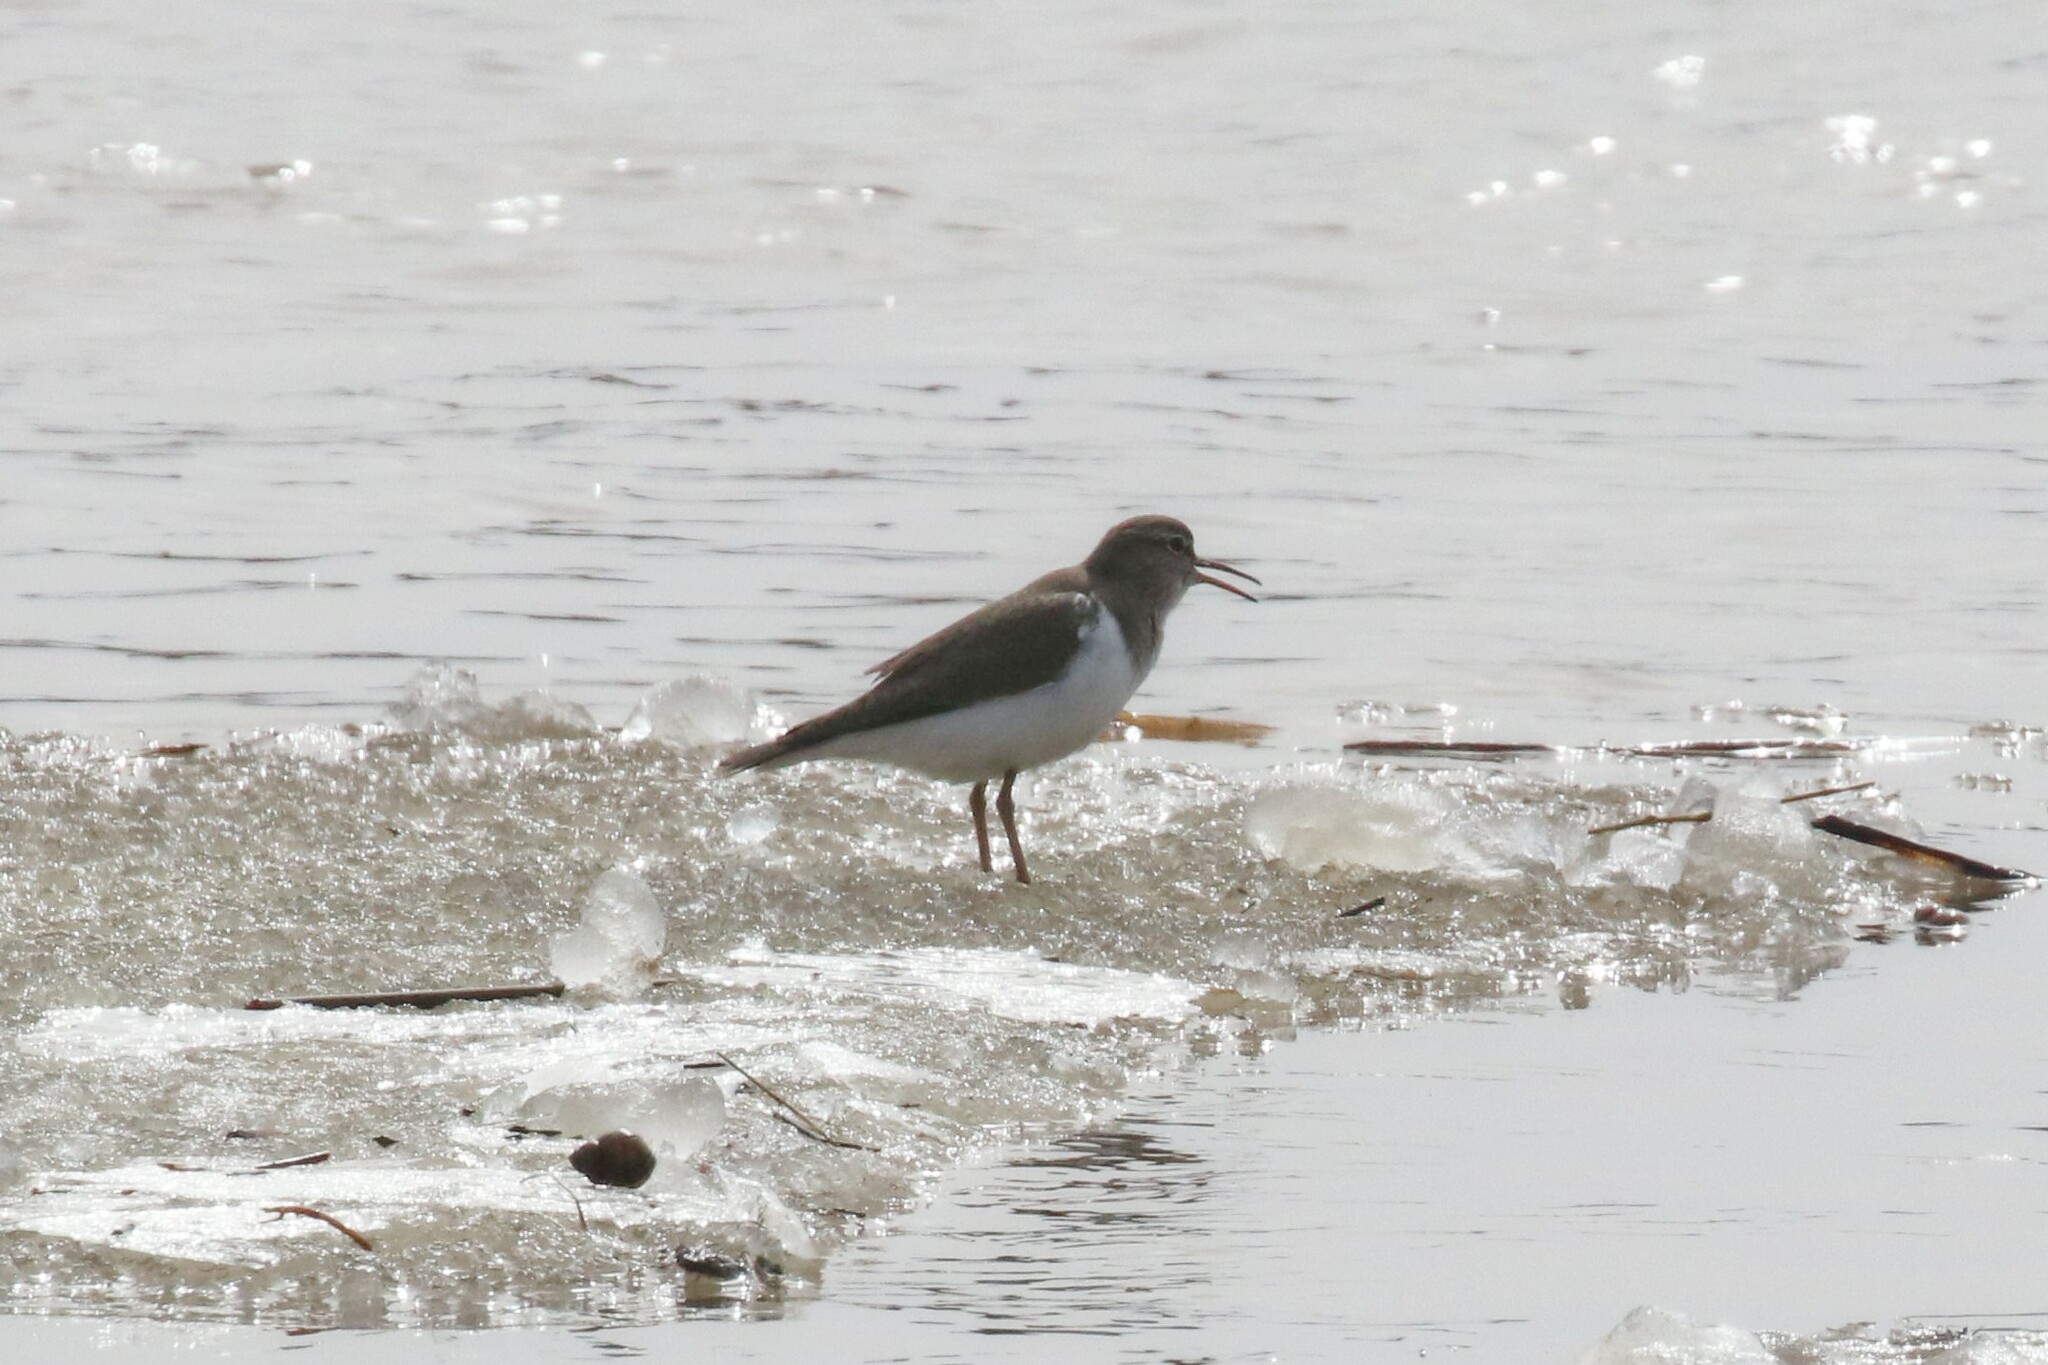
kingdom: Animalia
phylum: Chordata
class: Aves
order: Charadriiformes
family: Scolopacidae
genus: Actitis
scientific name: Actitis hypoleucos
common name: Common sandpiper
